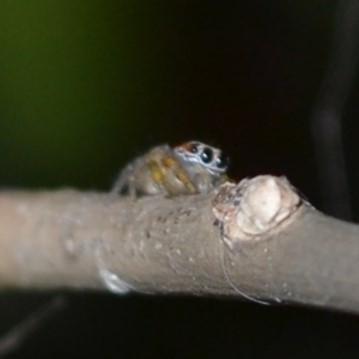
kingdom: Animalia
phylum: Arthropoda
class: Arachnida
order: Araneae
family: Salticidae
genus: Colonus
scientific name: Colonus sylvanus
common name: Jumping spiders
